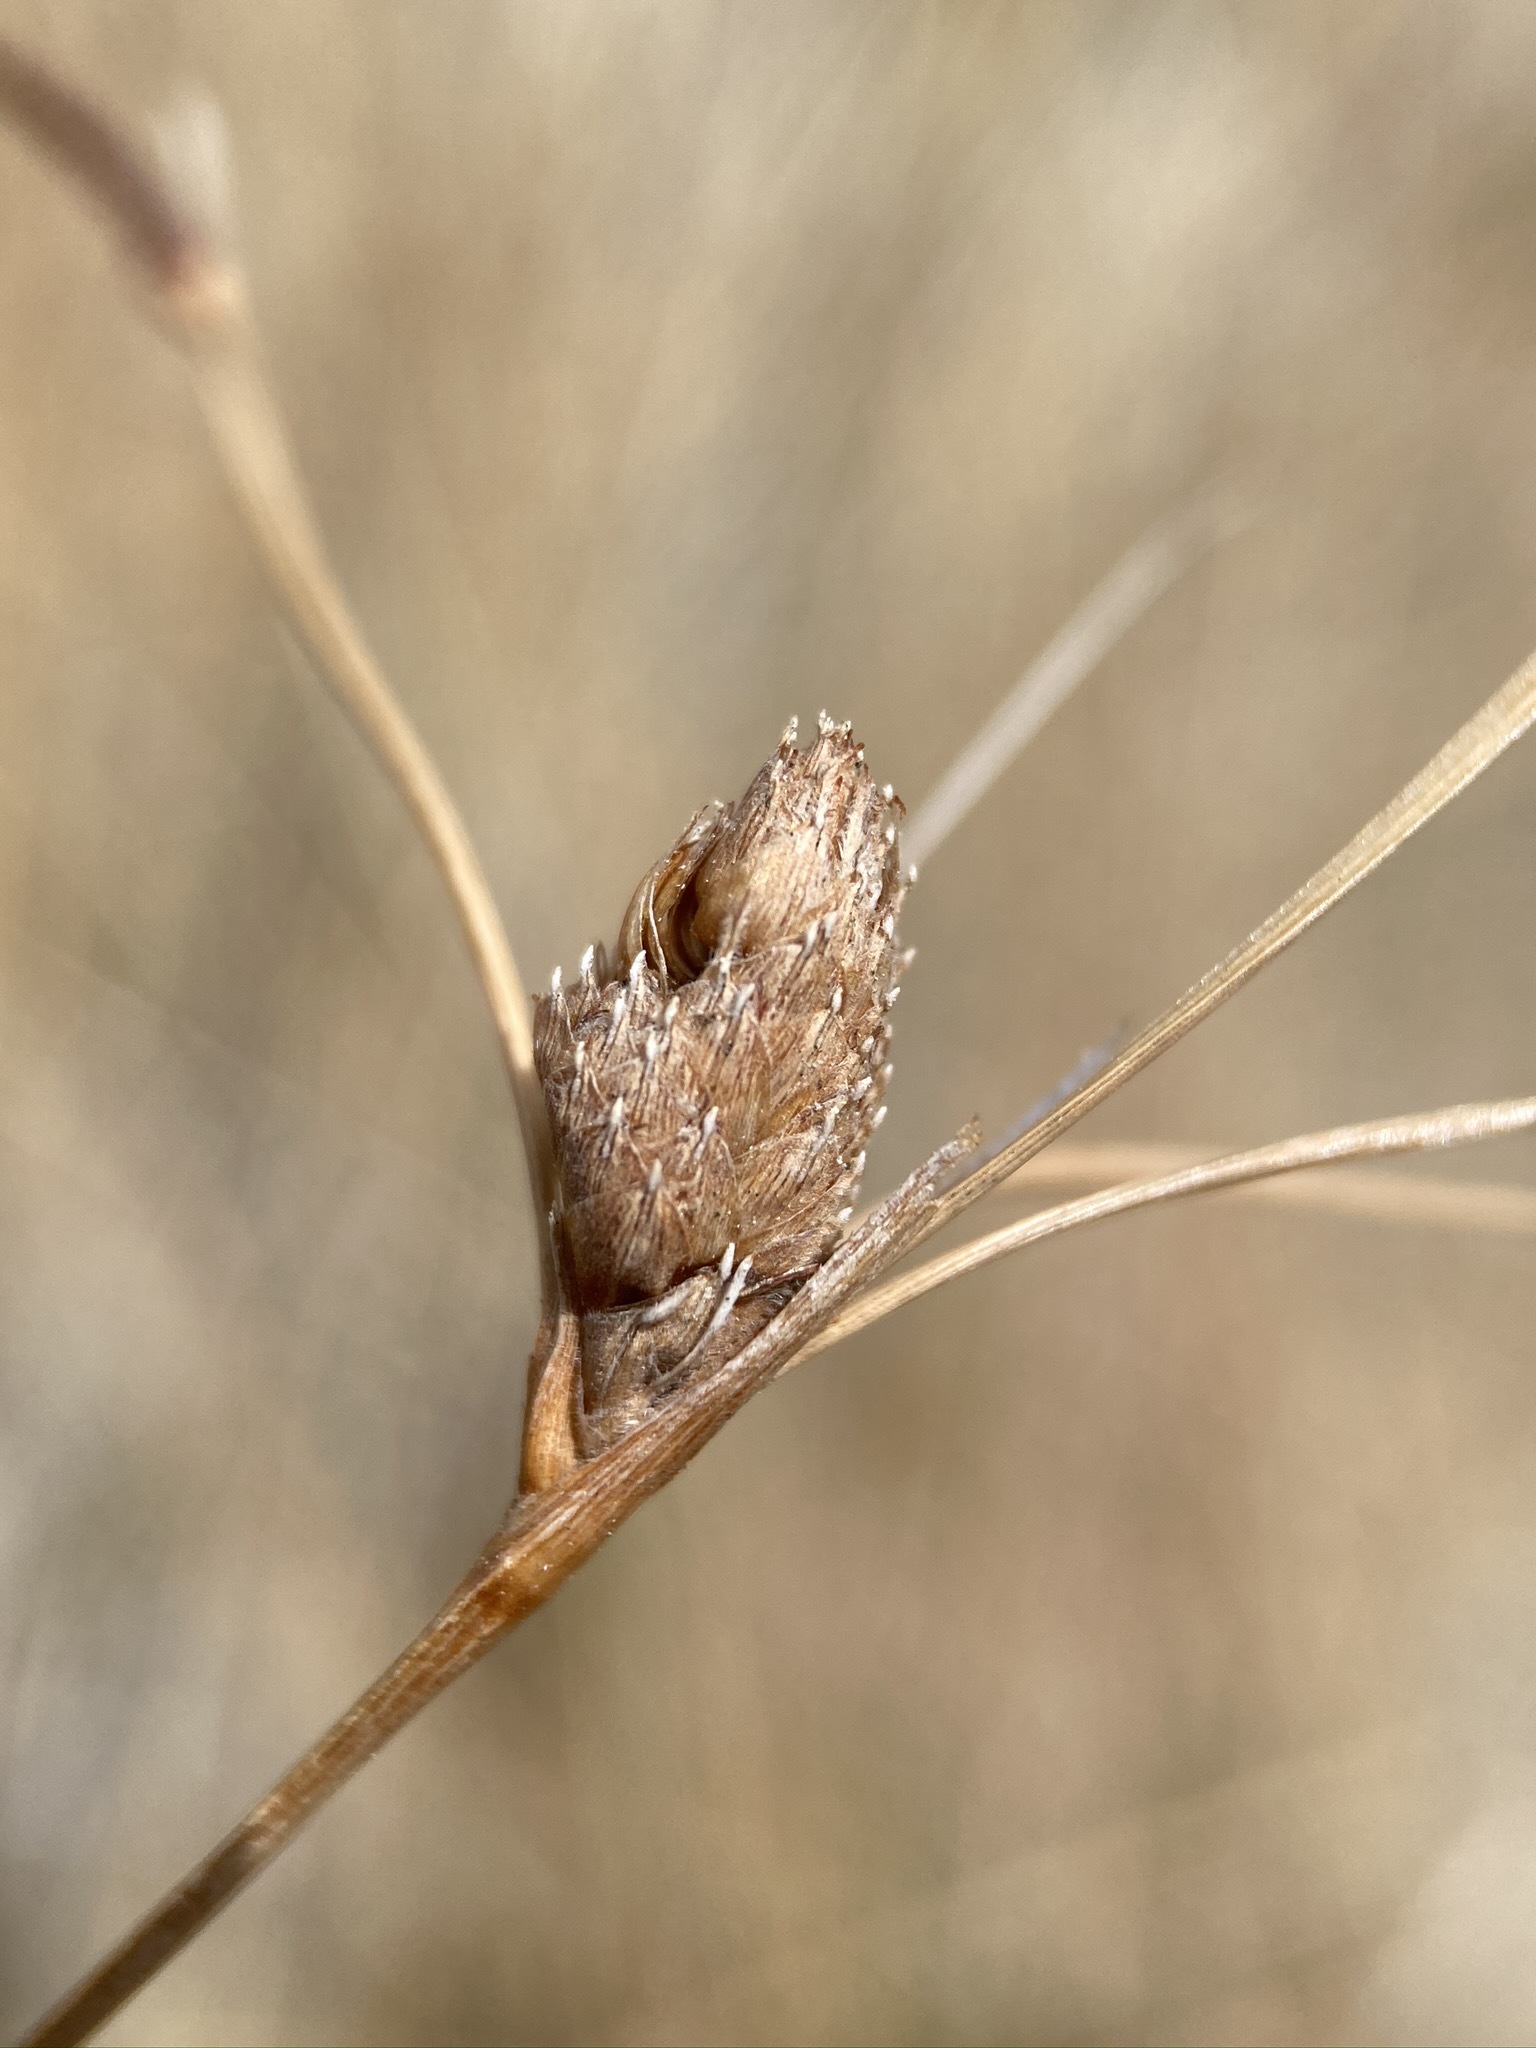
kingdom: Plantae
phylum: Tracheophyta
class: Liliopsida
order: Poales
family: Cyperaceae
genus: Fimbristylis
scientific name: Fimbristylis thermalis
